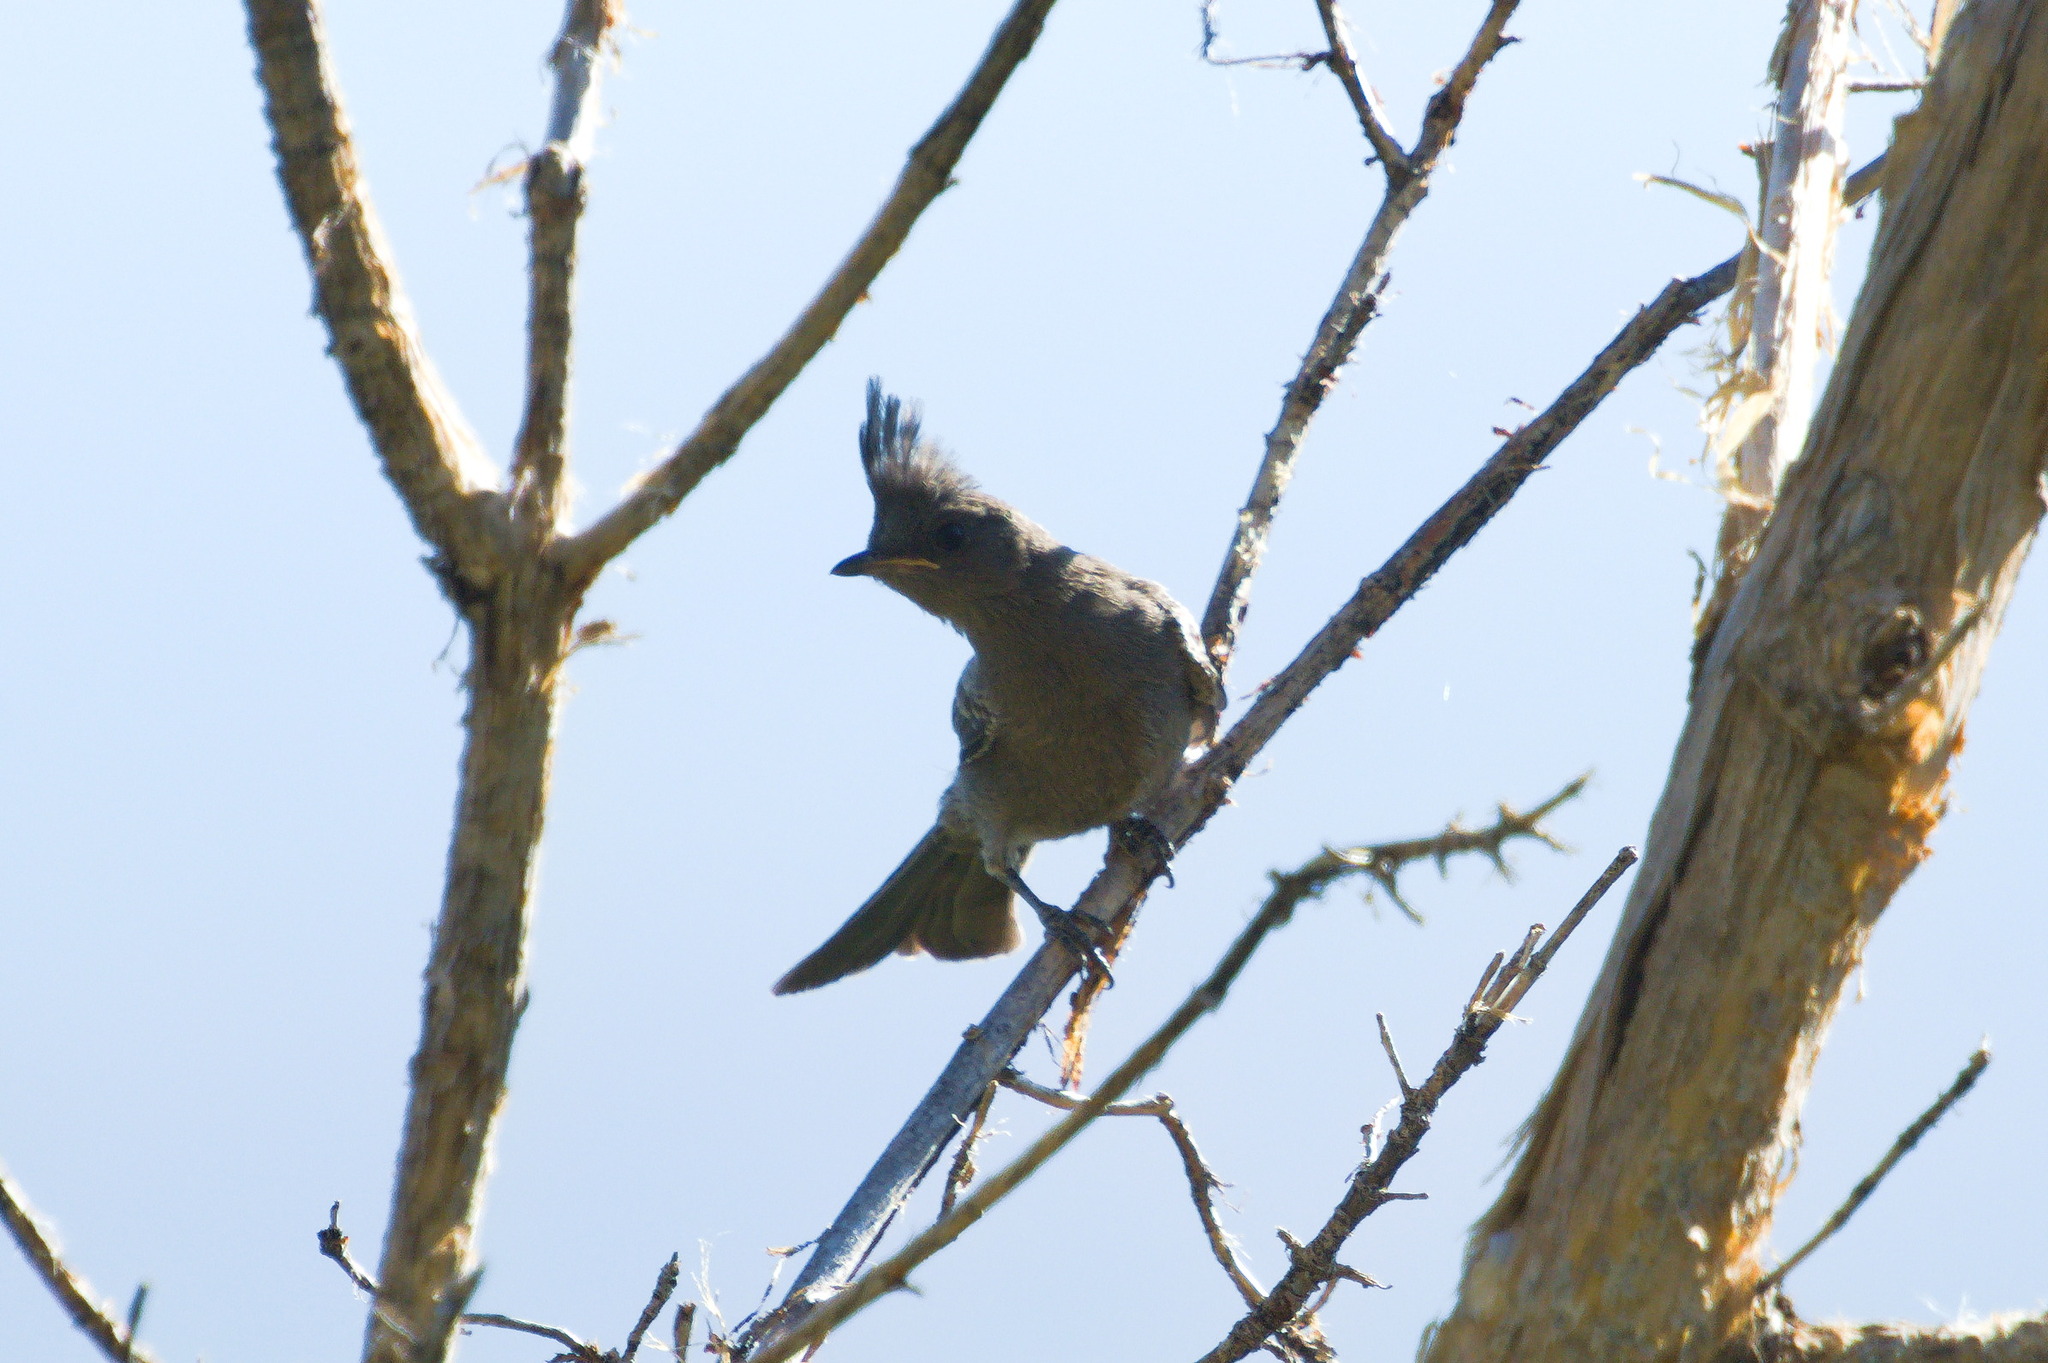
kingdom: Animalia
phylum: Chordata
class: Aves
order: Passeriformes
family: Ptilogonatidae
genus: Phainopepla
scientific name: Phainopepla nitens
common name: Phainopepla
